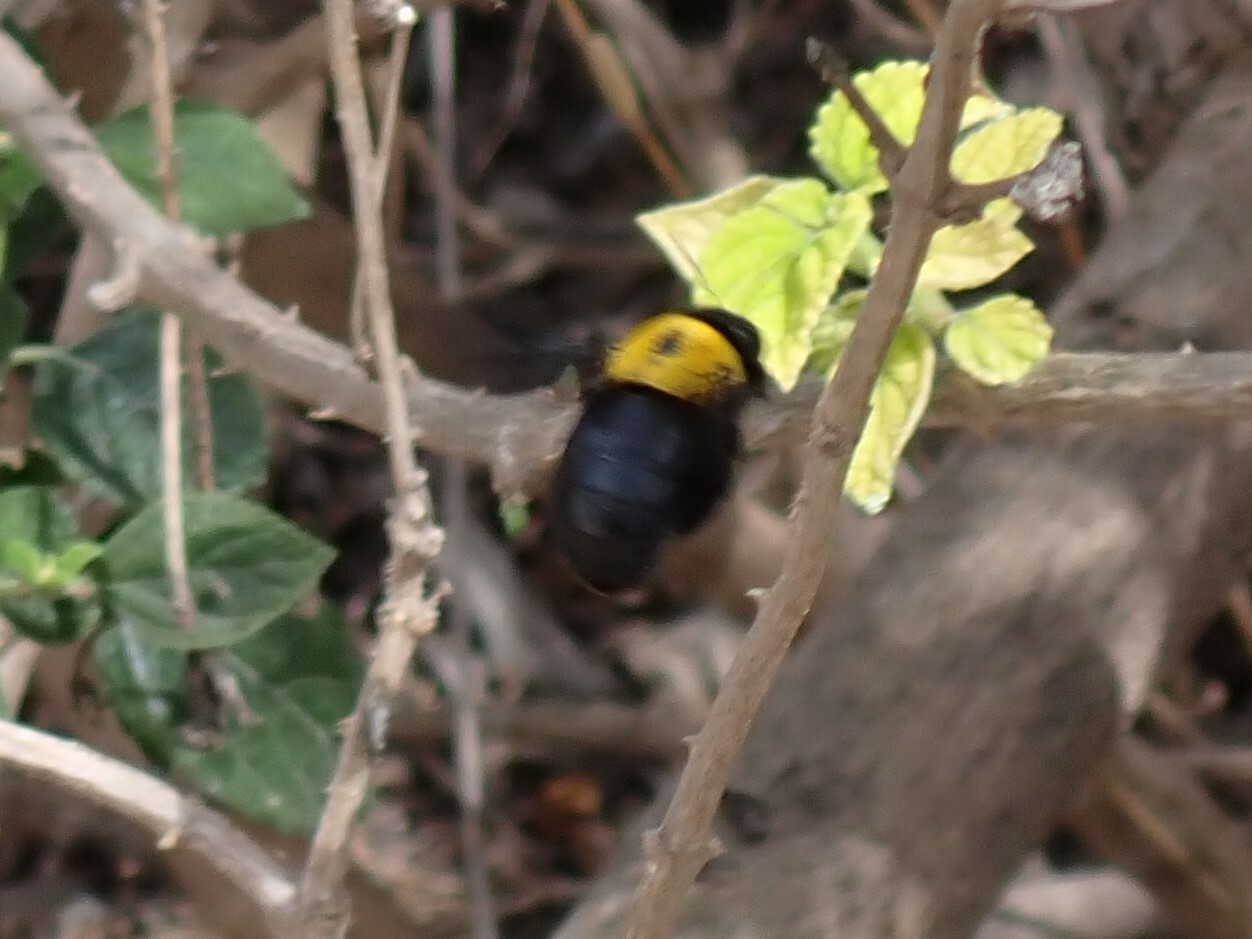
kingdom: Animalia
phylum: Arthropoda
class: Insecta
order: Hymenoptera
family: Apidae
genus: Xylocopa
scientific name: Xylocopa pubescens
